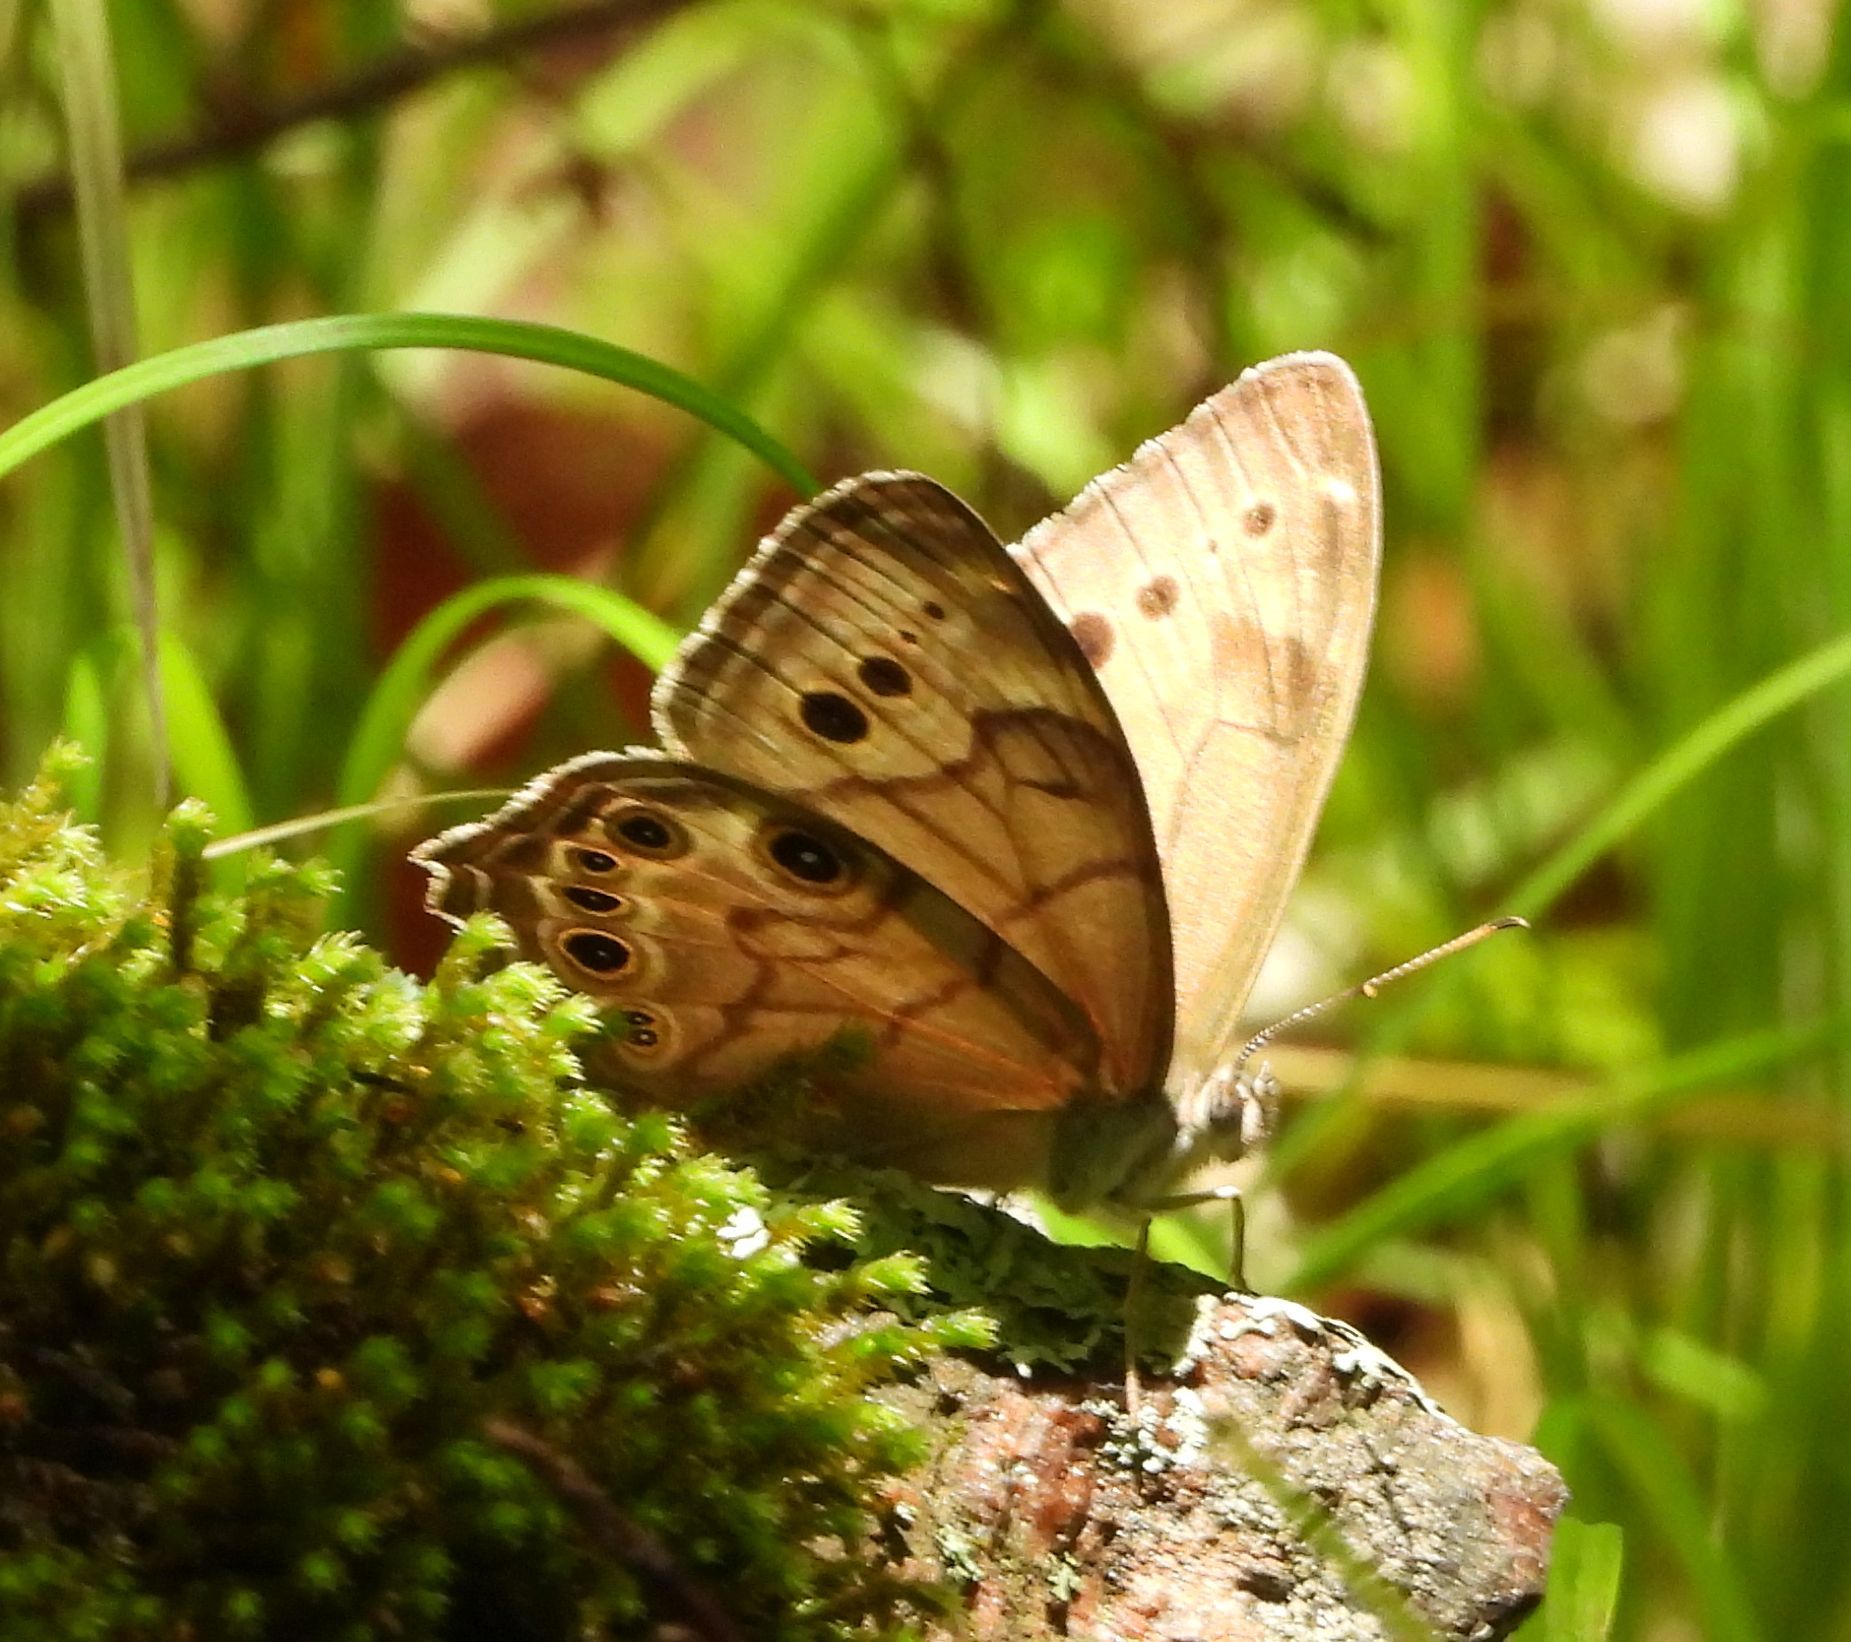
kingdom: Animalia
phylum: Arthropoda
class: Insecta
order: Lepidoptera
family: Nymphalidae
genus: Lethe
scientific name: Lethe anthedon
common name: Northern pearly-eye
